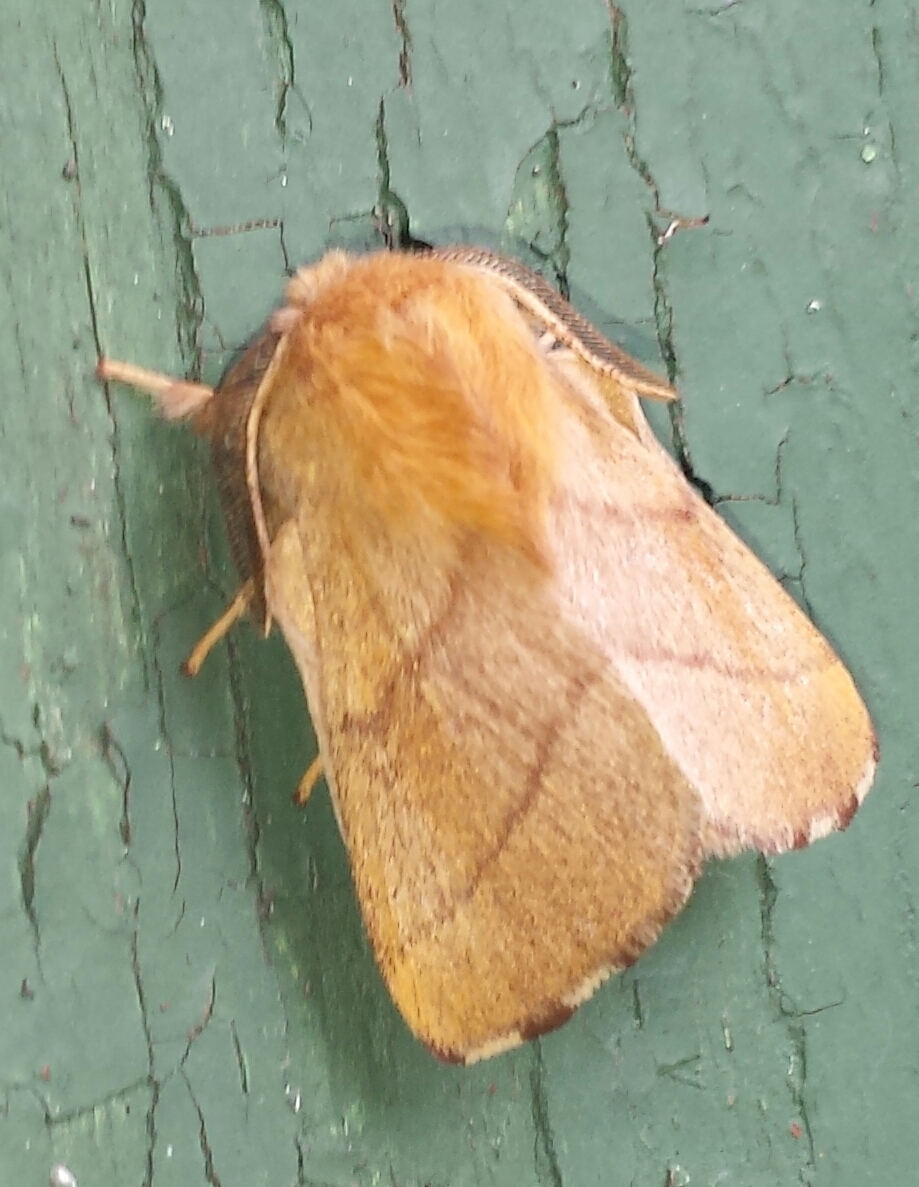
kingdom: Animalia
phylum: Arthropoda
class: Insecta
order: Lepidoptera
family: Lasiocampidae
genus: Malacosoma
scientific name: Malacosoma disstria
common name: Forest tent caterpillar
